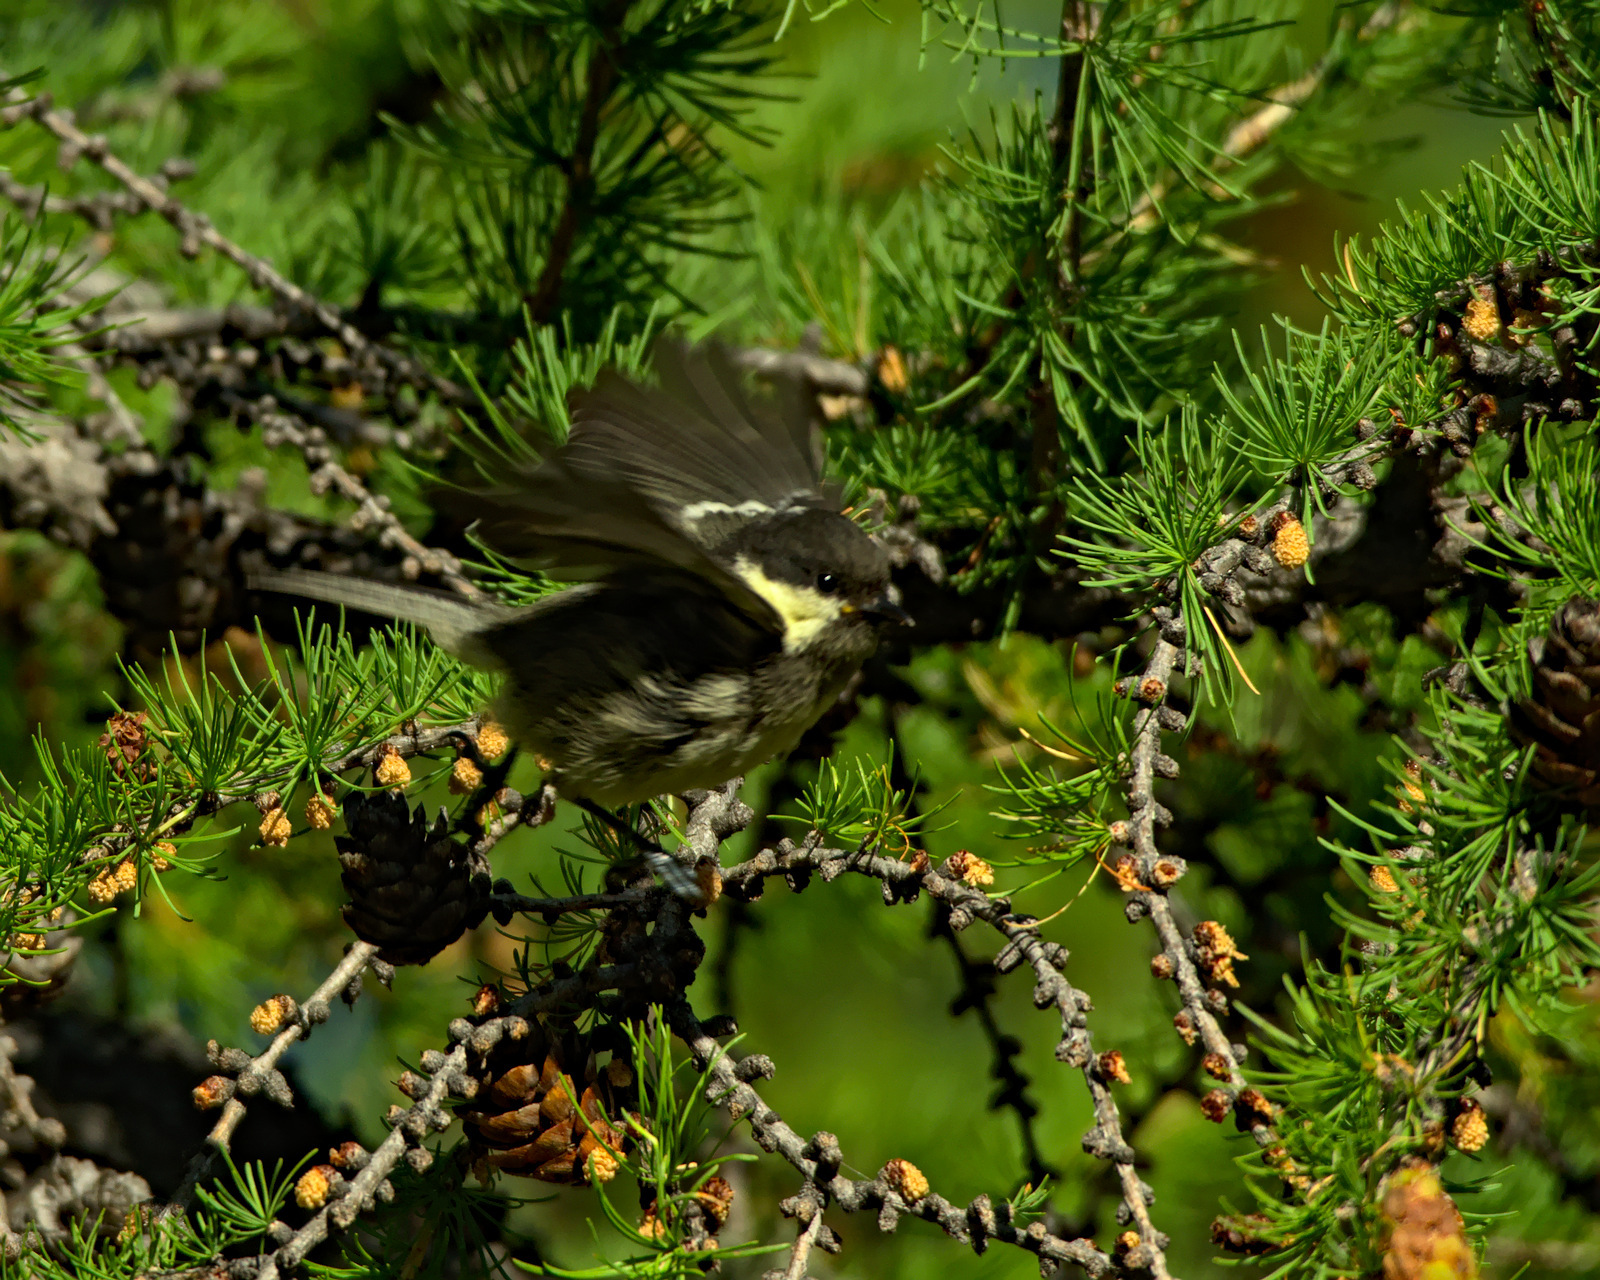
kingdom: Animalia
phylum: Chordata
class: Aves
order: Passeriformes
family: Paridae
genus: Periparus
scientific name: Periparus ater
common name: Coal tit
